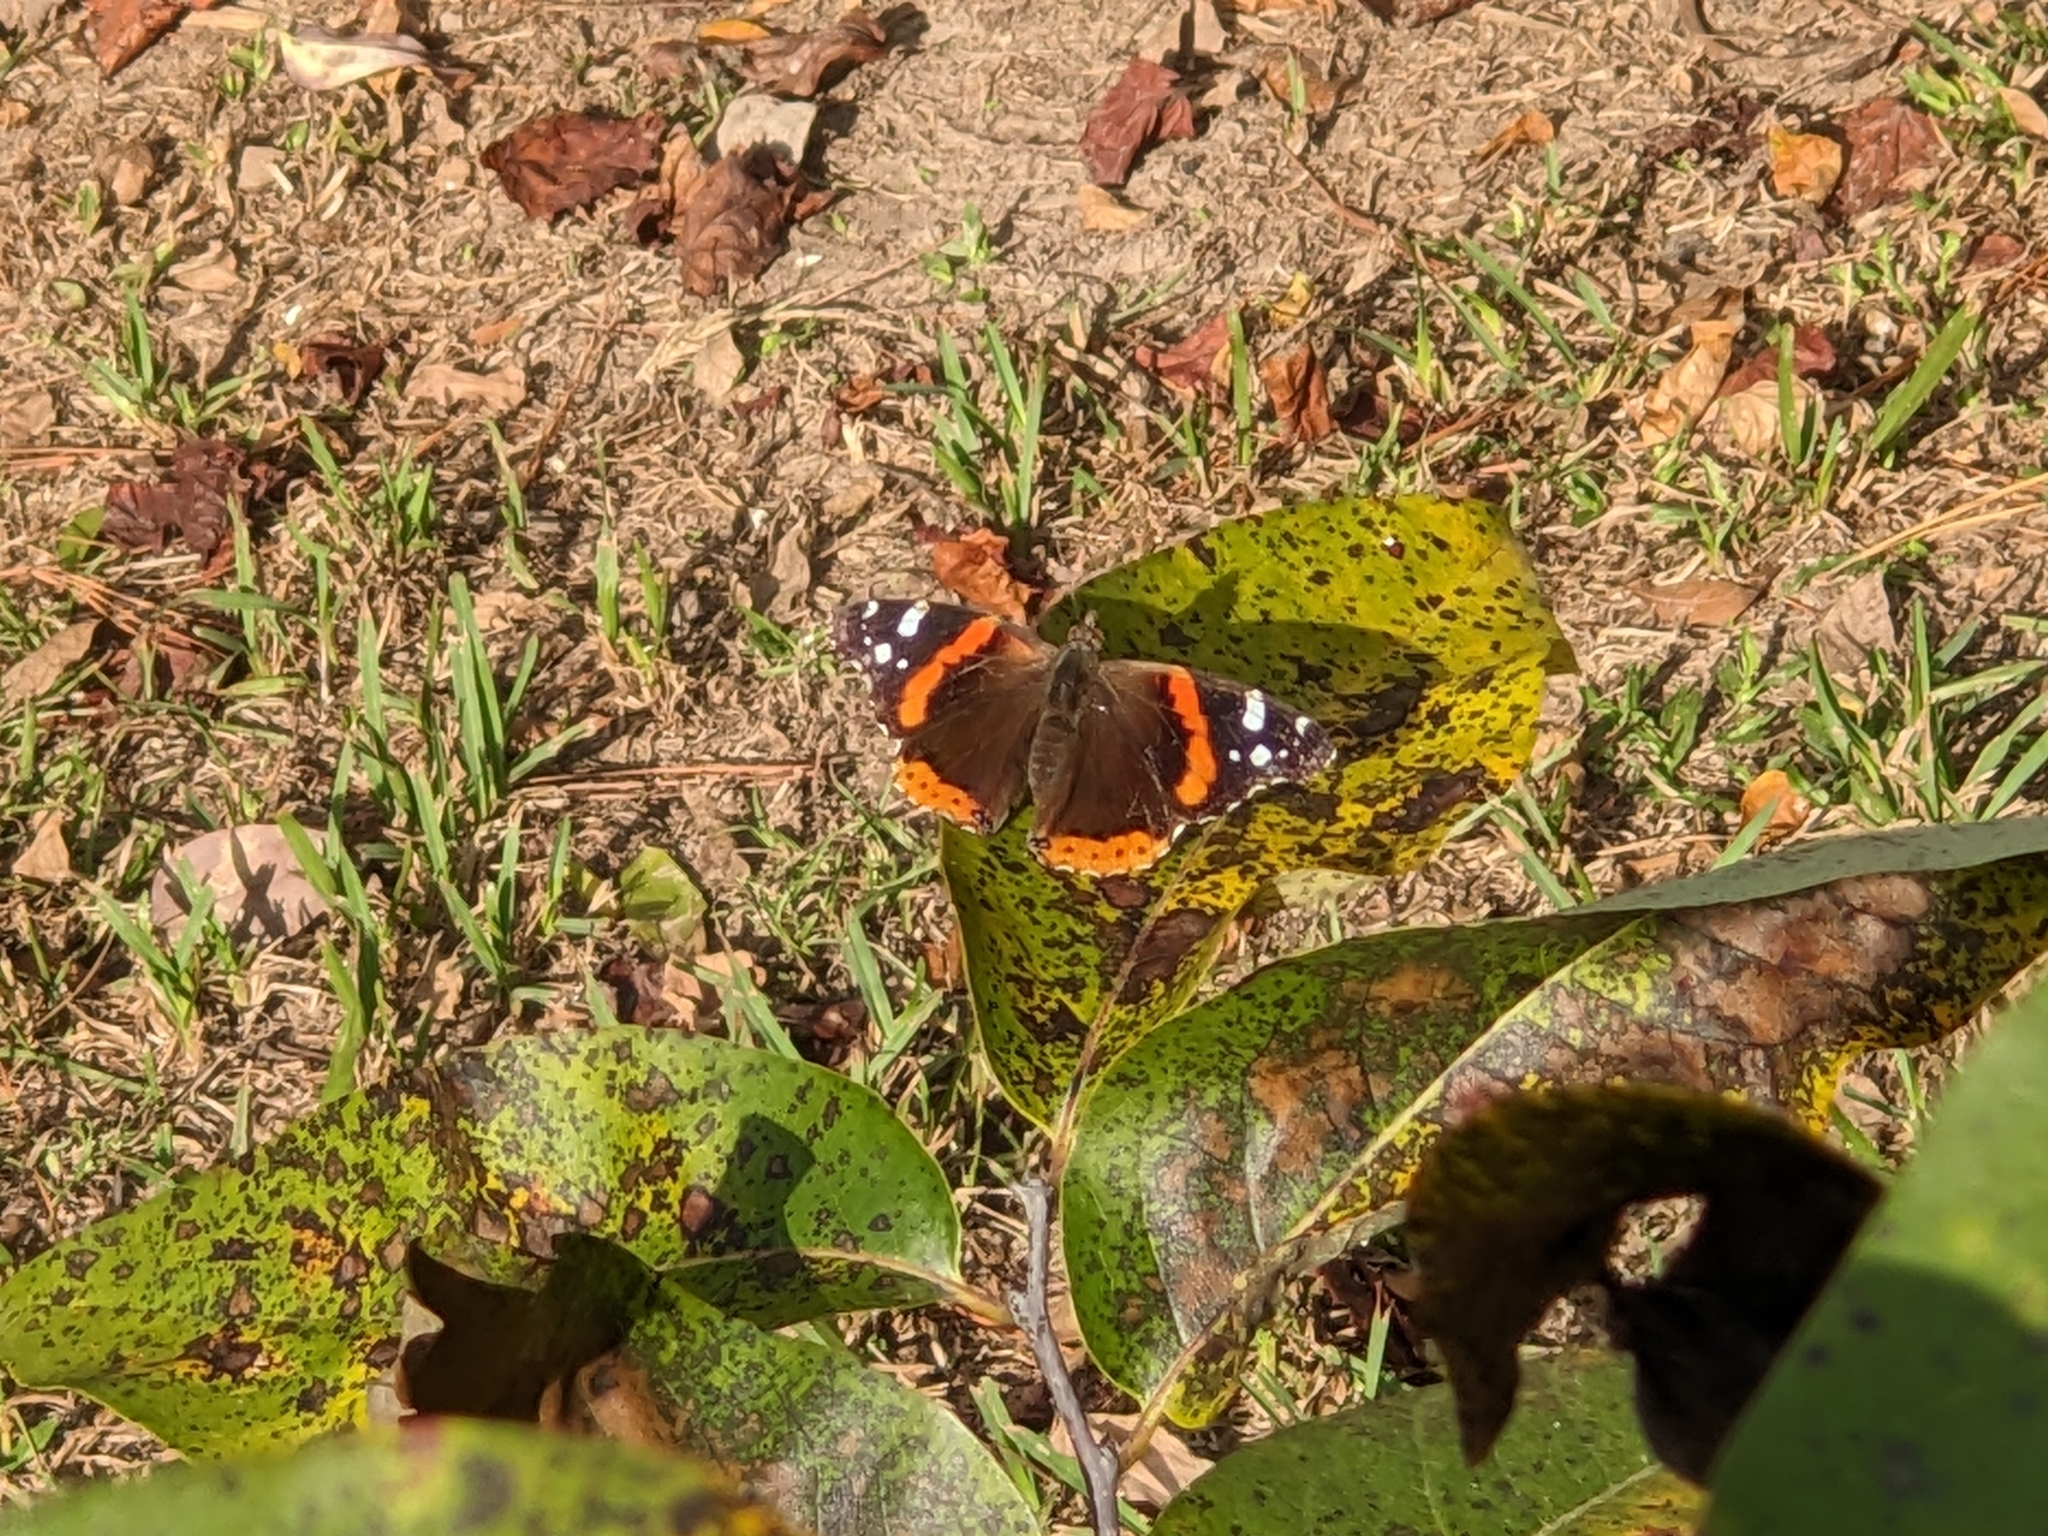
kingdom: Animalia
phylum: Arthropoda
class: Insecta
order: Lepidoptera
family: Nymphalidae
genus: Vanessa
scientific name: Vanessa atalanta
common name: Red admiral
